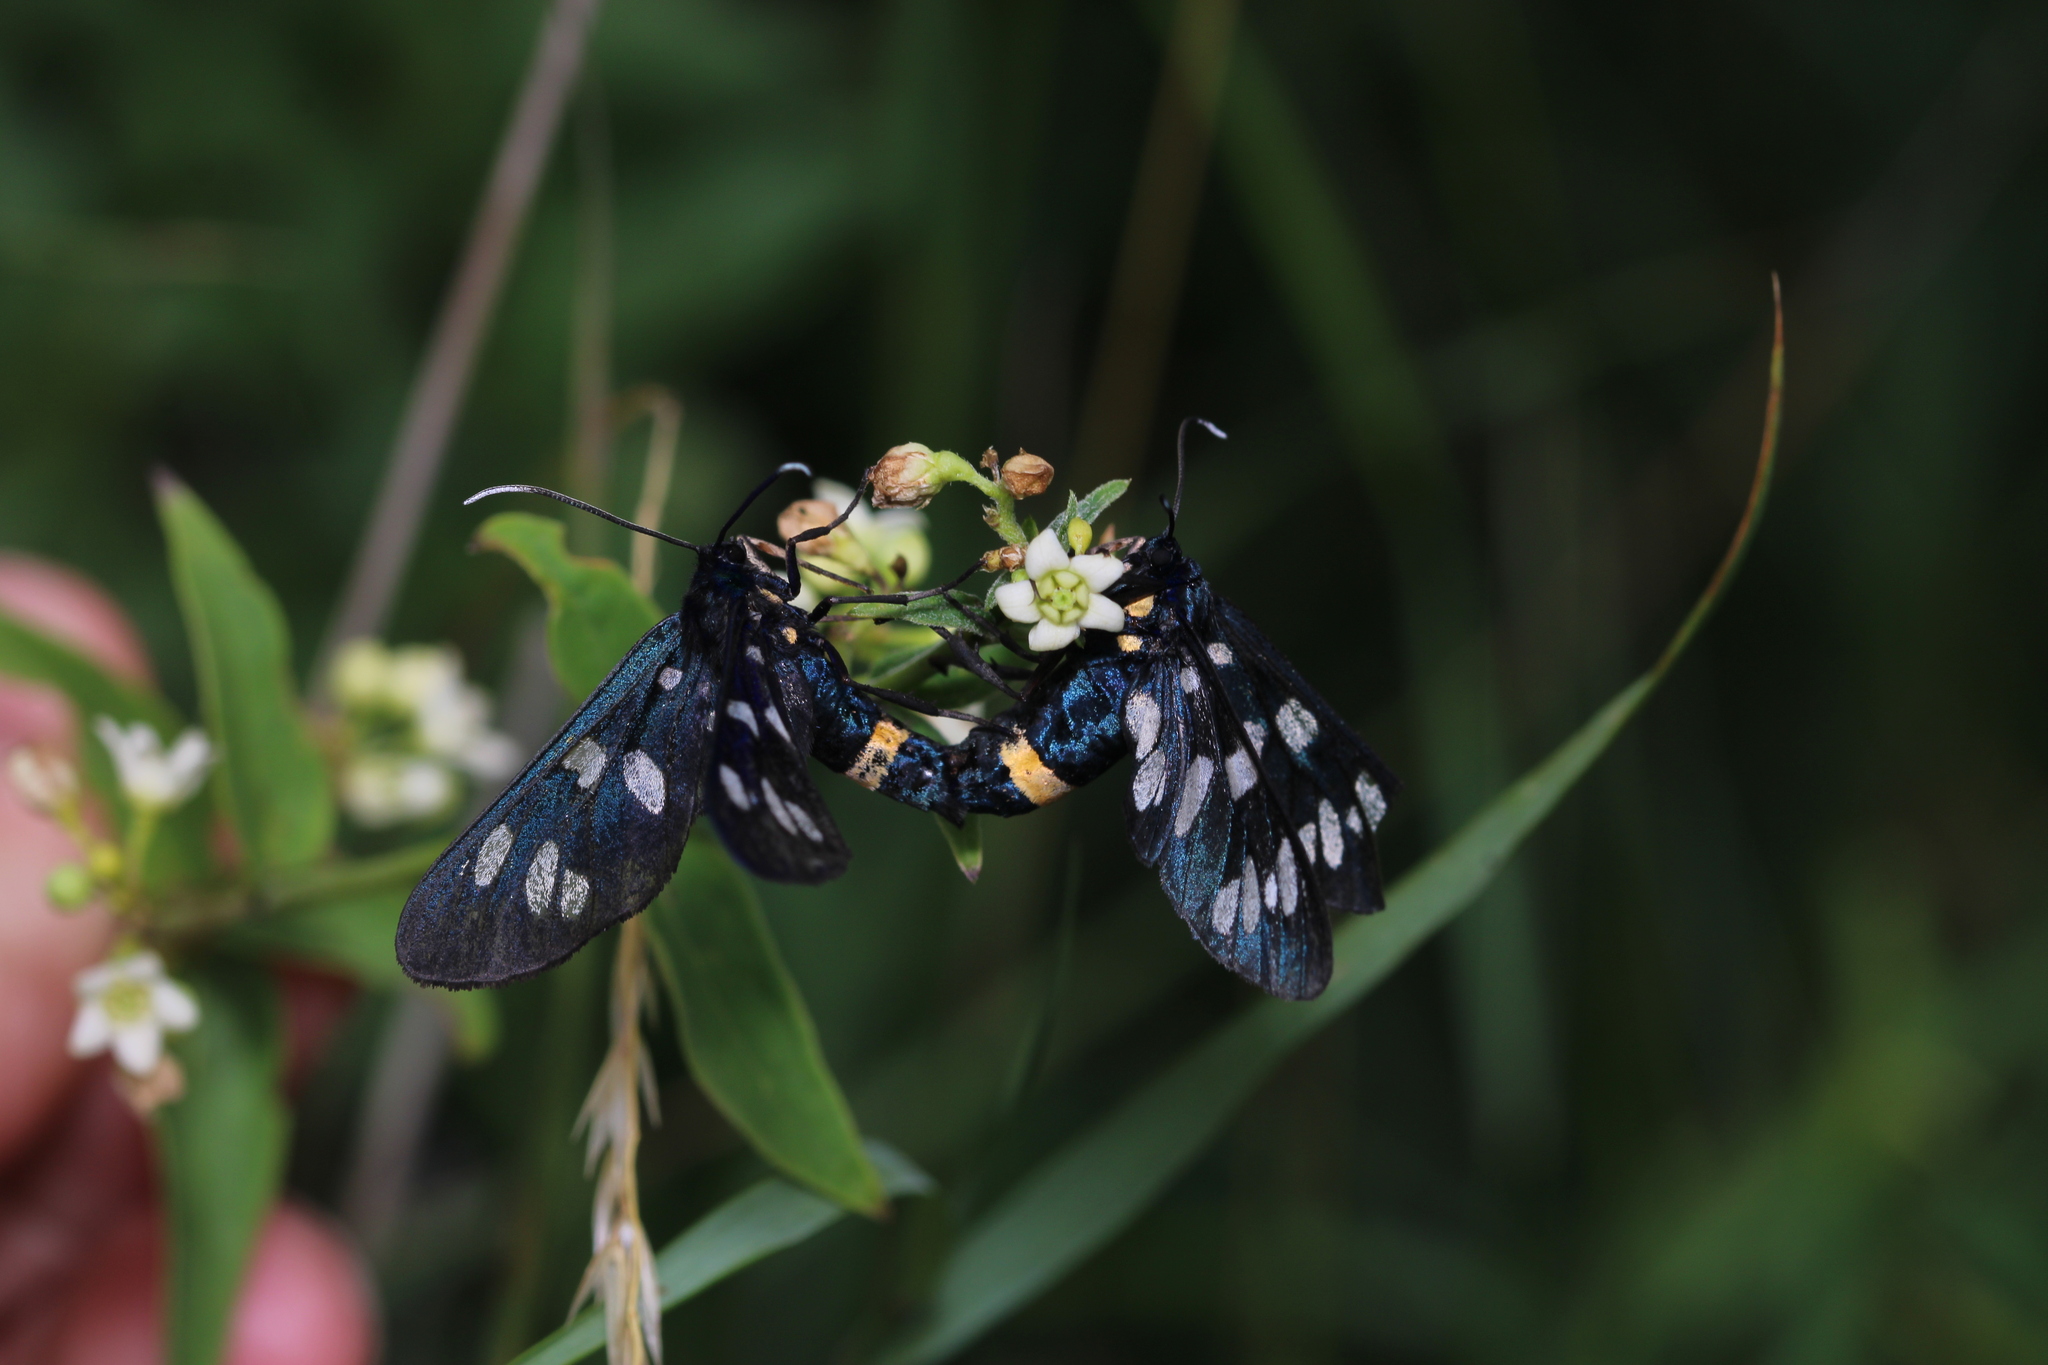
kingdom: Animalia
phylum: Arthropoda
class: Insecta
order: Lepidoptera
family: Erebidae
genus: Amata
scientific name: Amata phegea
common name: Nine-spotted
